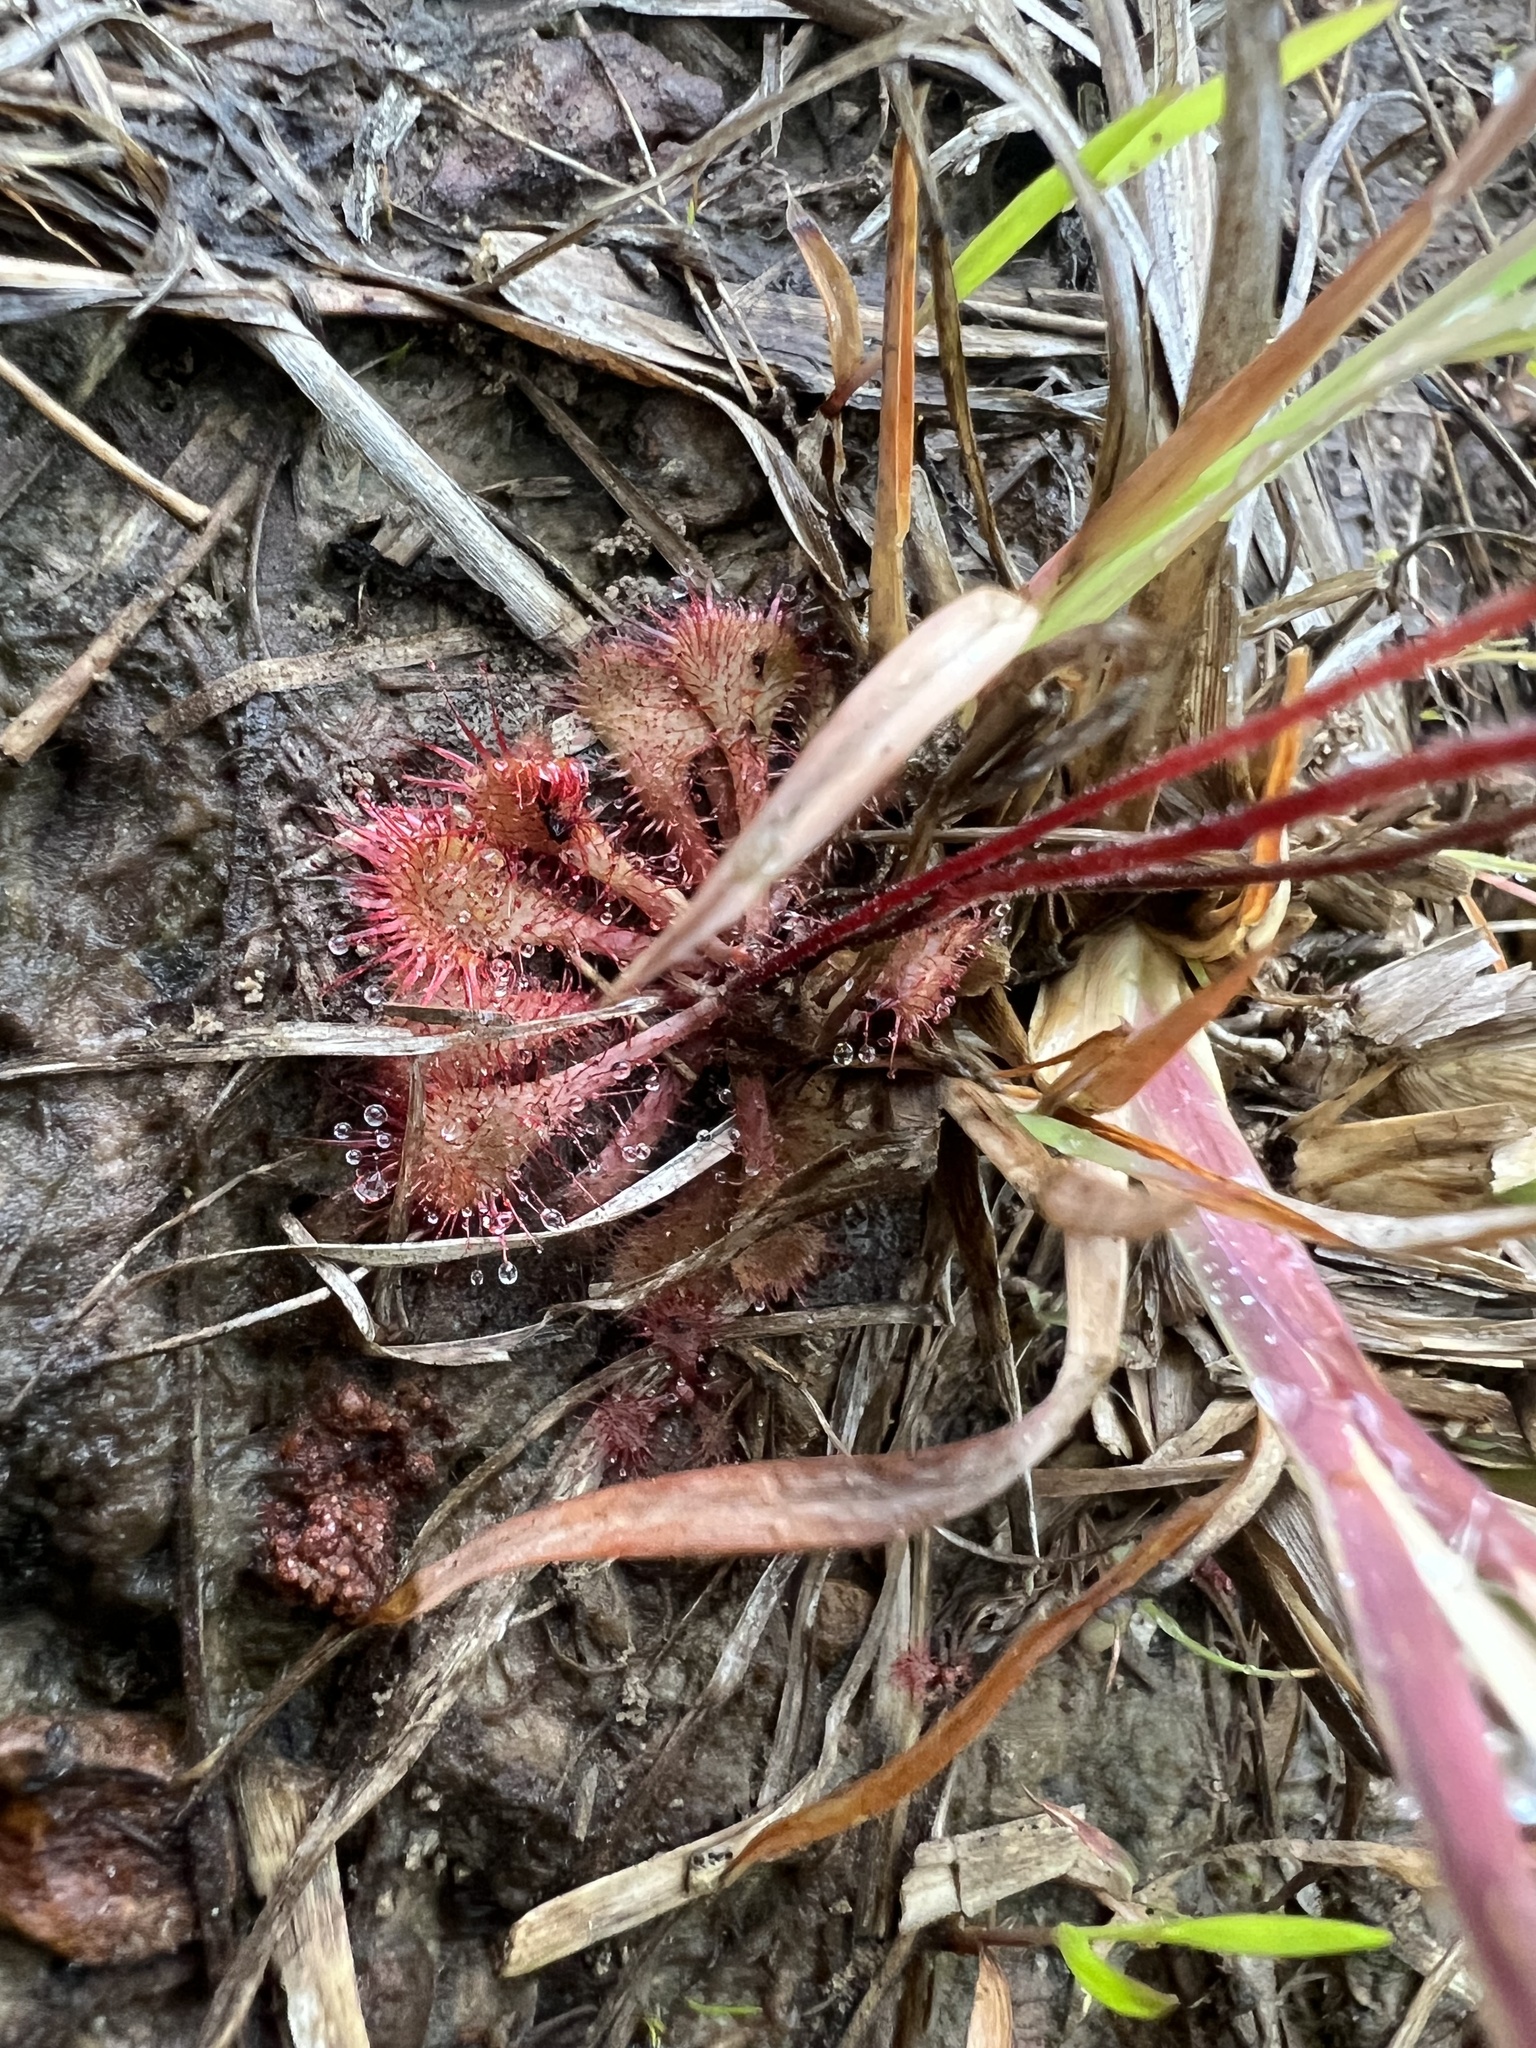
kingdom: Plantae
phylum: Tracheophyta
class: Magnoliopsida
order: Caryophyllales
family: Droseraceae
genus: Drosera
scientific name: Drosera brevifolia
